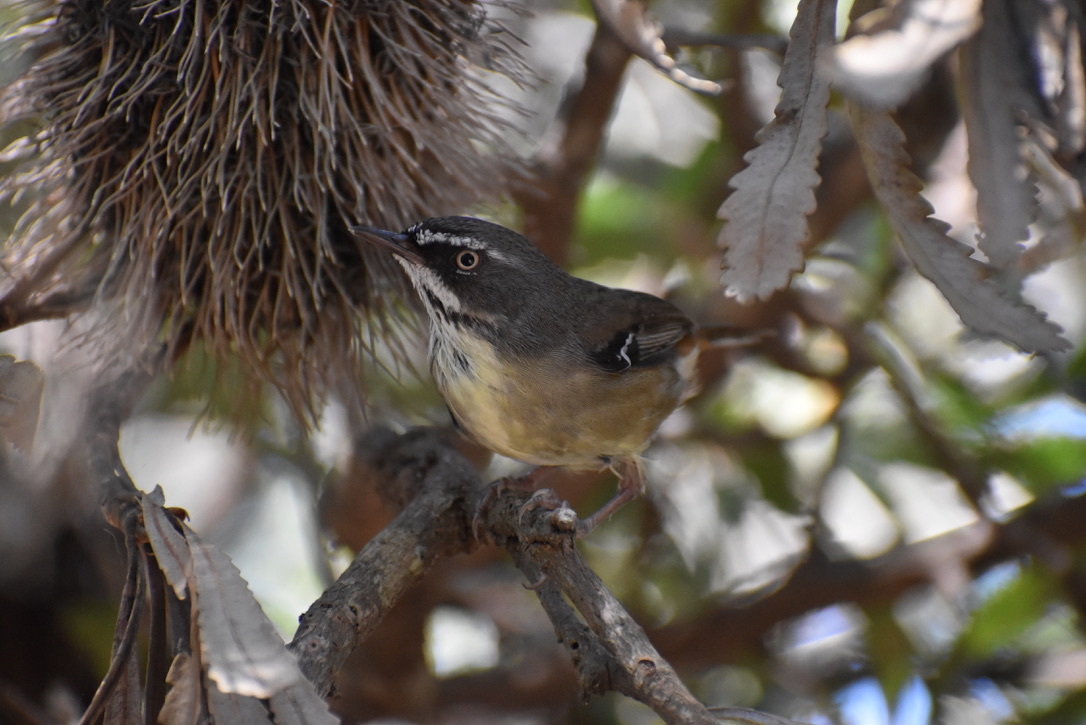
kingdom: Animalia
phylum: Chordata
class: Aves
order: Passeriformes
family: Acanthizidae
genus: Sericornis
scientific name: Sericornis frontalis
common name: White-browed scrubwren
